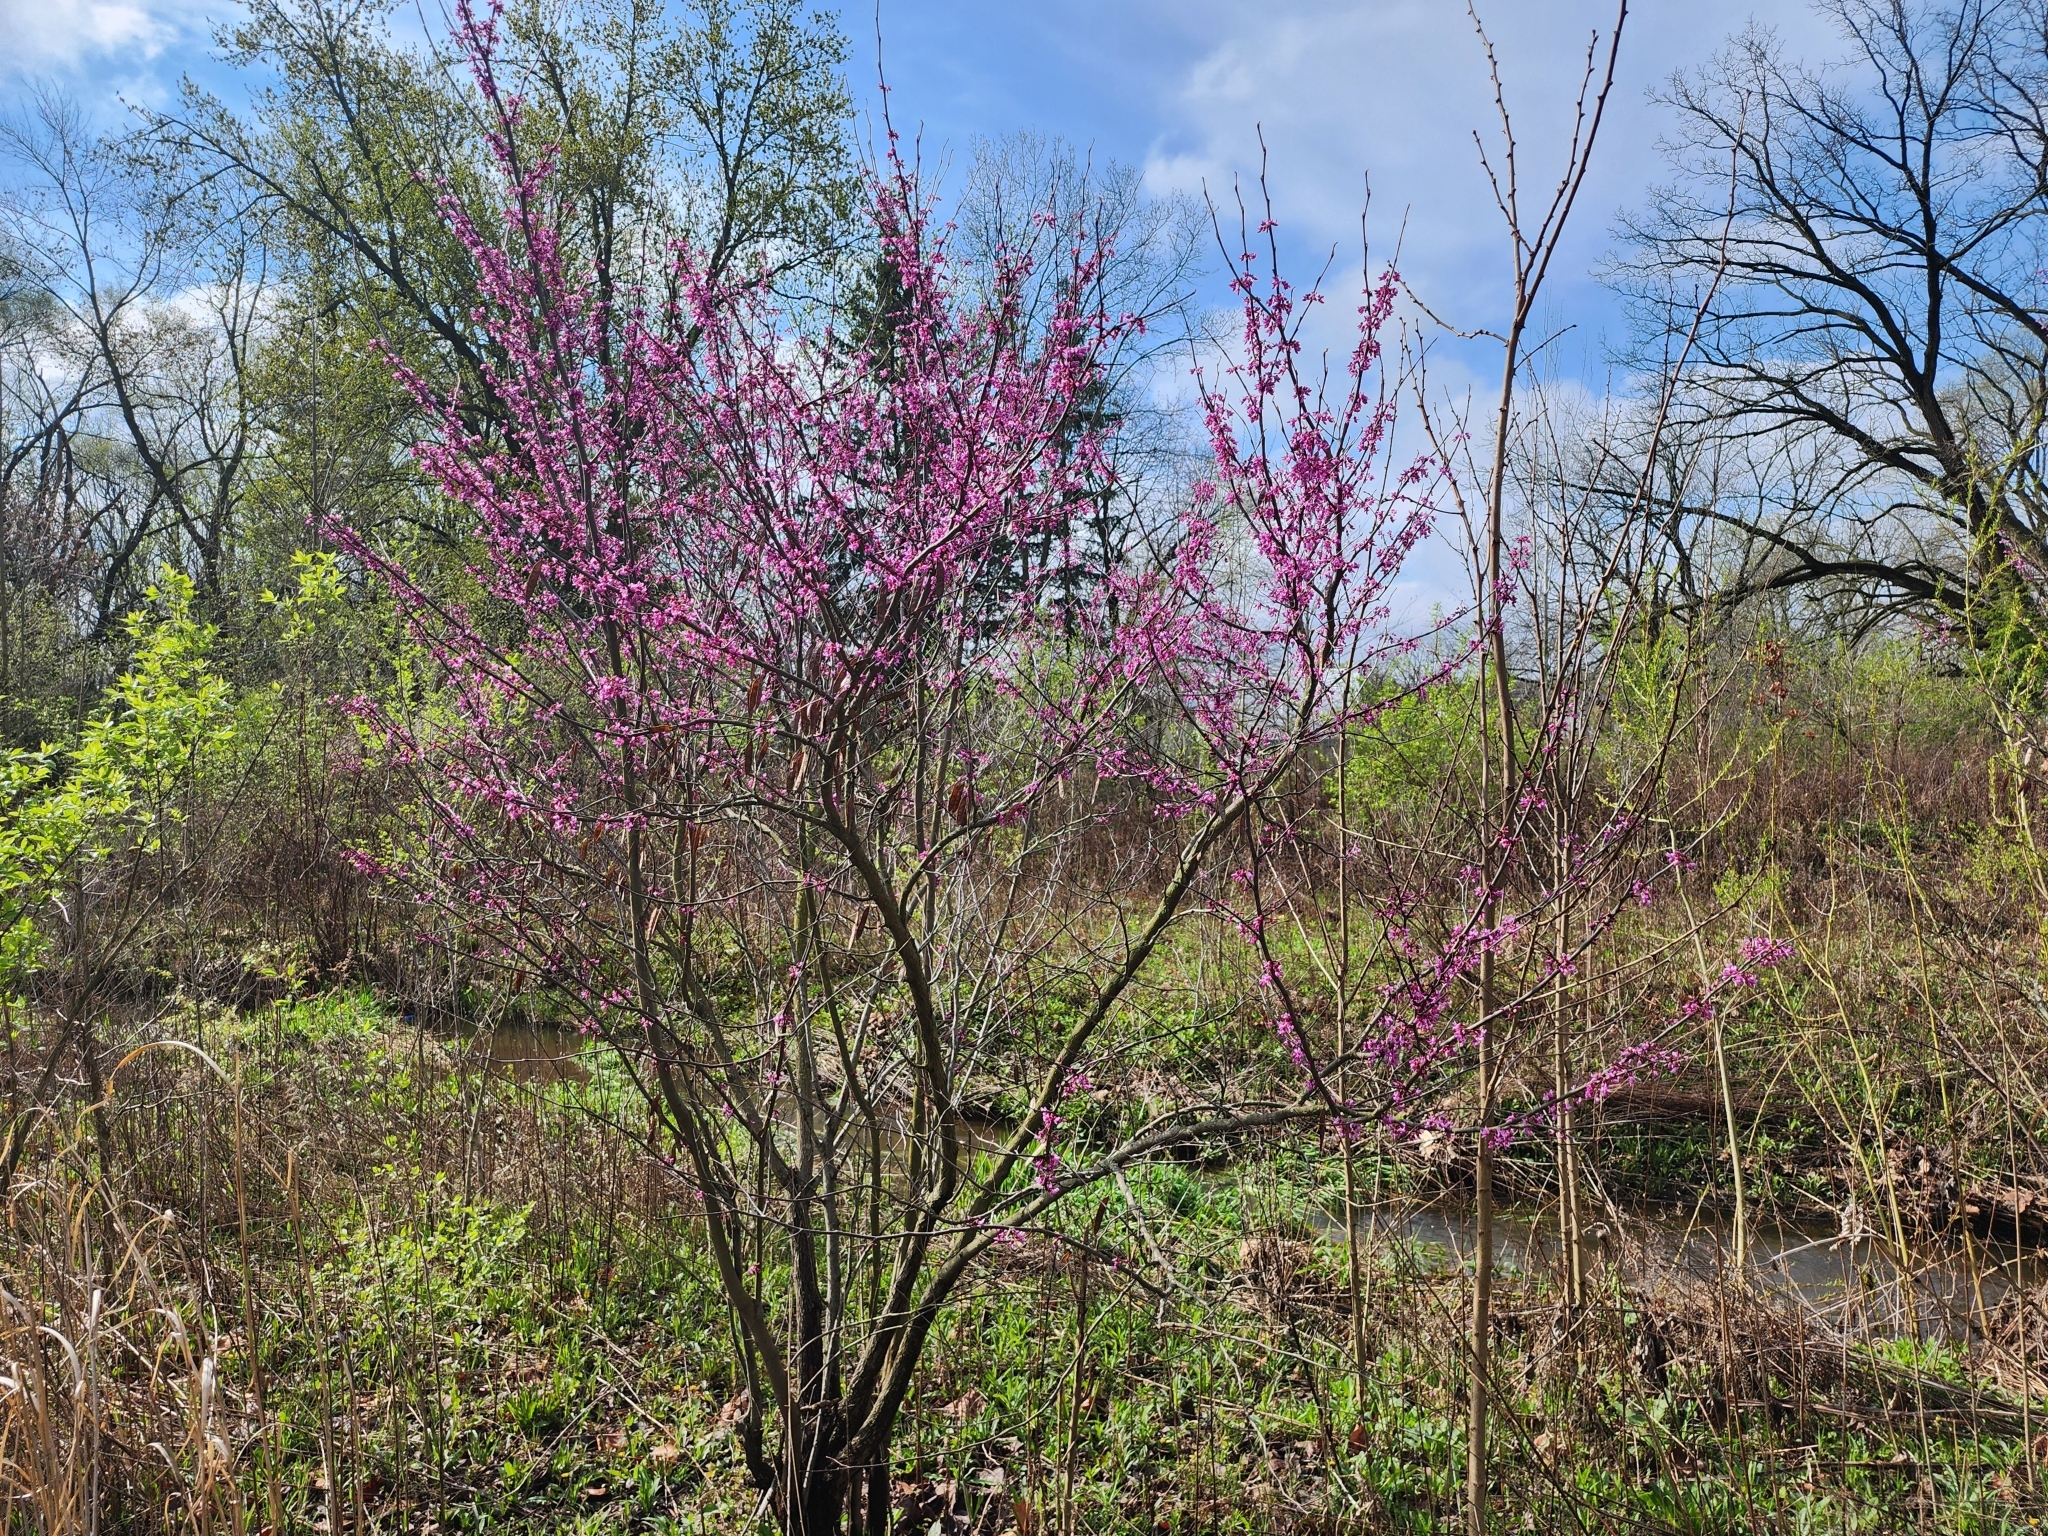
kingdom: Plantae
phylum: Tracheophyta
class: Magnoliopsida
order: Fabales
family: Fabaceae
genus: Cercis
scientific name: Cercis canadensis
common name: Eastern redbud
